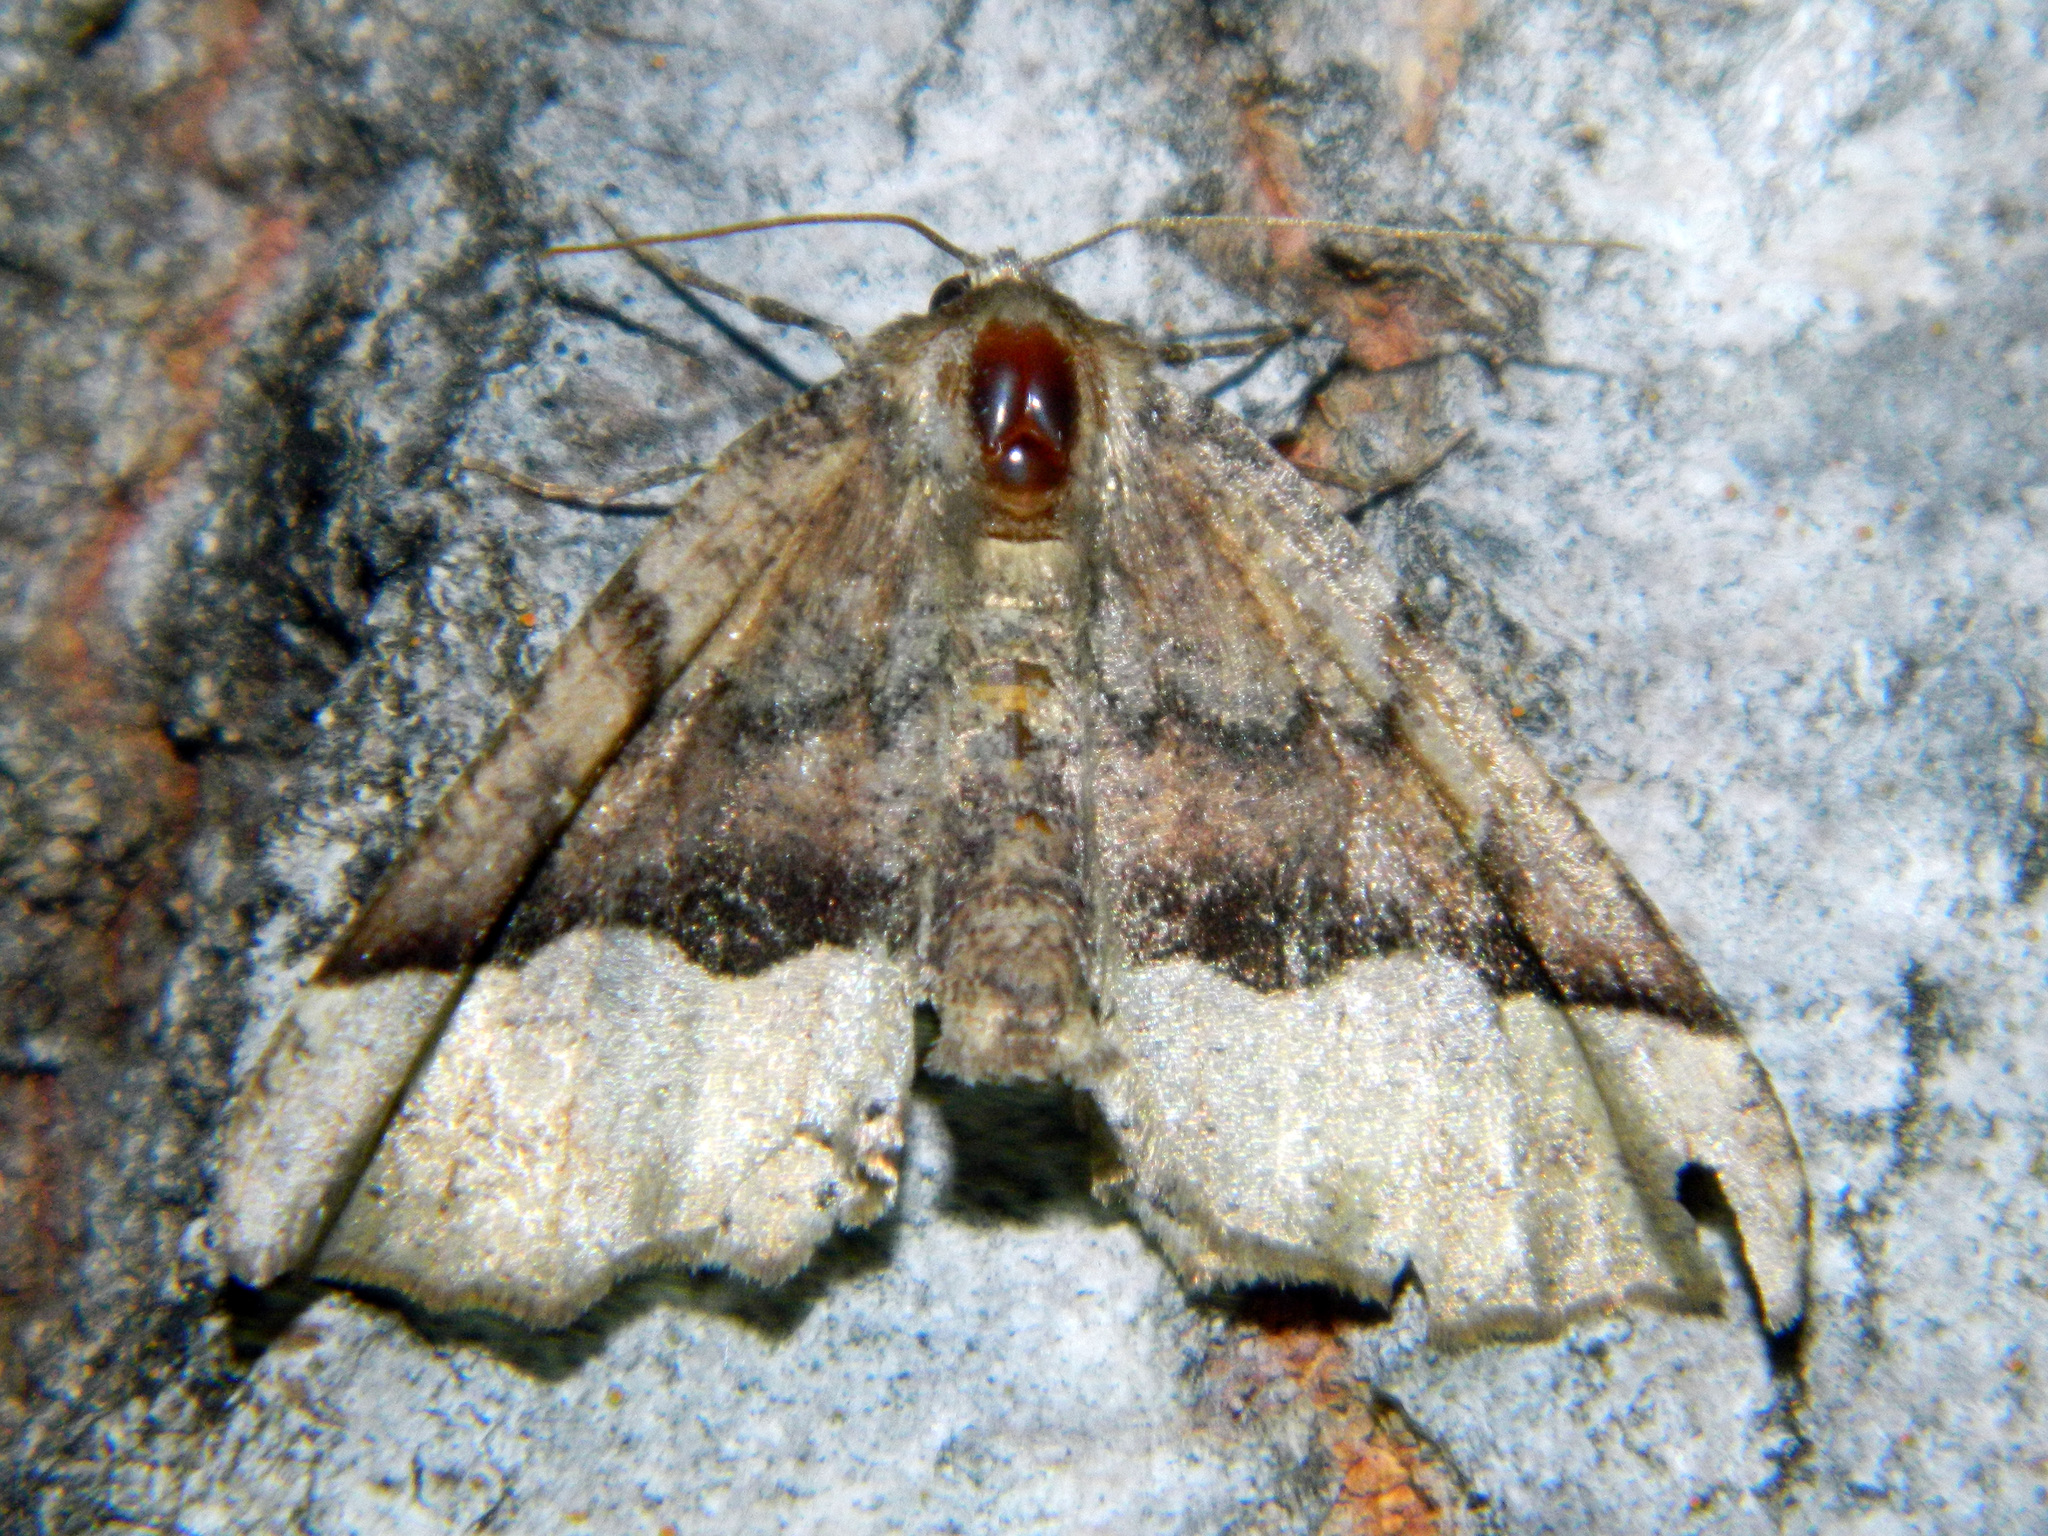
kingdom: Animalia
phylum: Arthropoda
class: Insecta
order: Lepidoptera
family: Geometridae
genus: Pero
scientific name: Pero morrisonaria
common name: Morrison's pero
